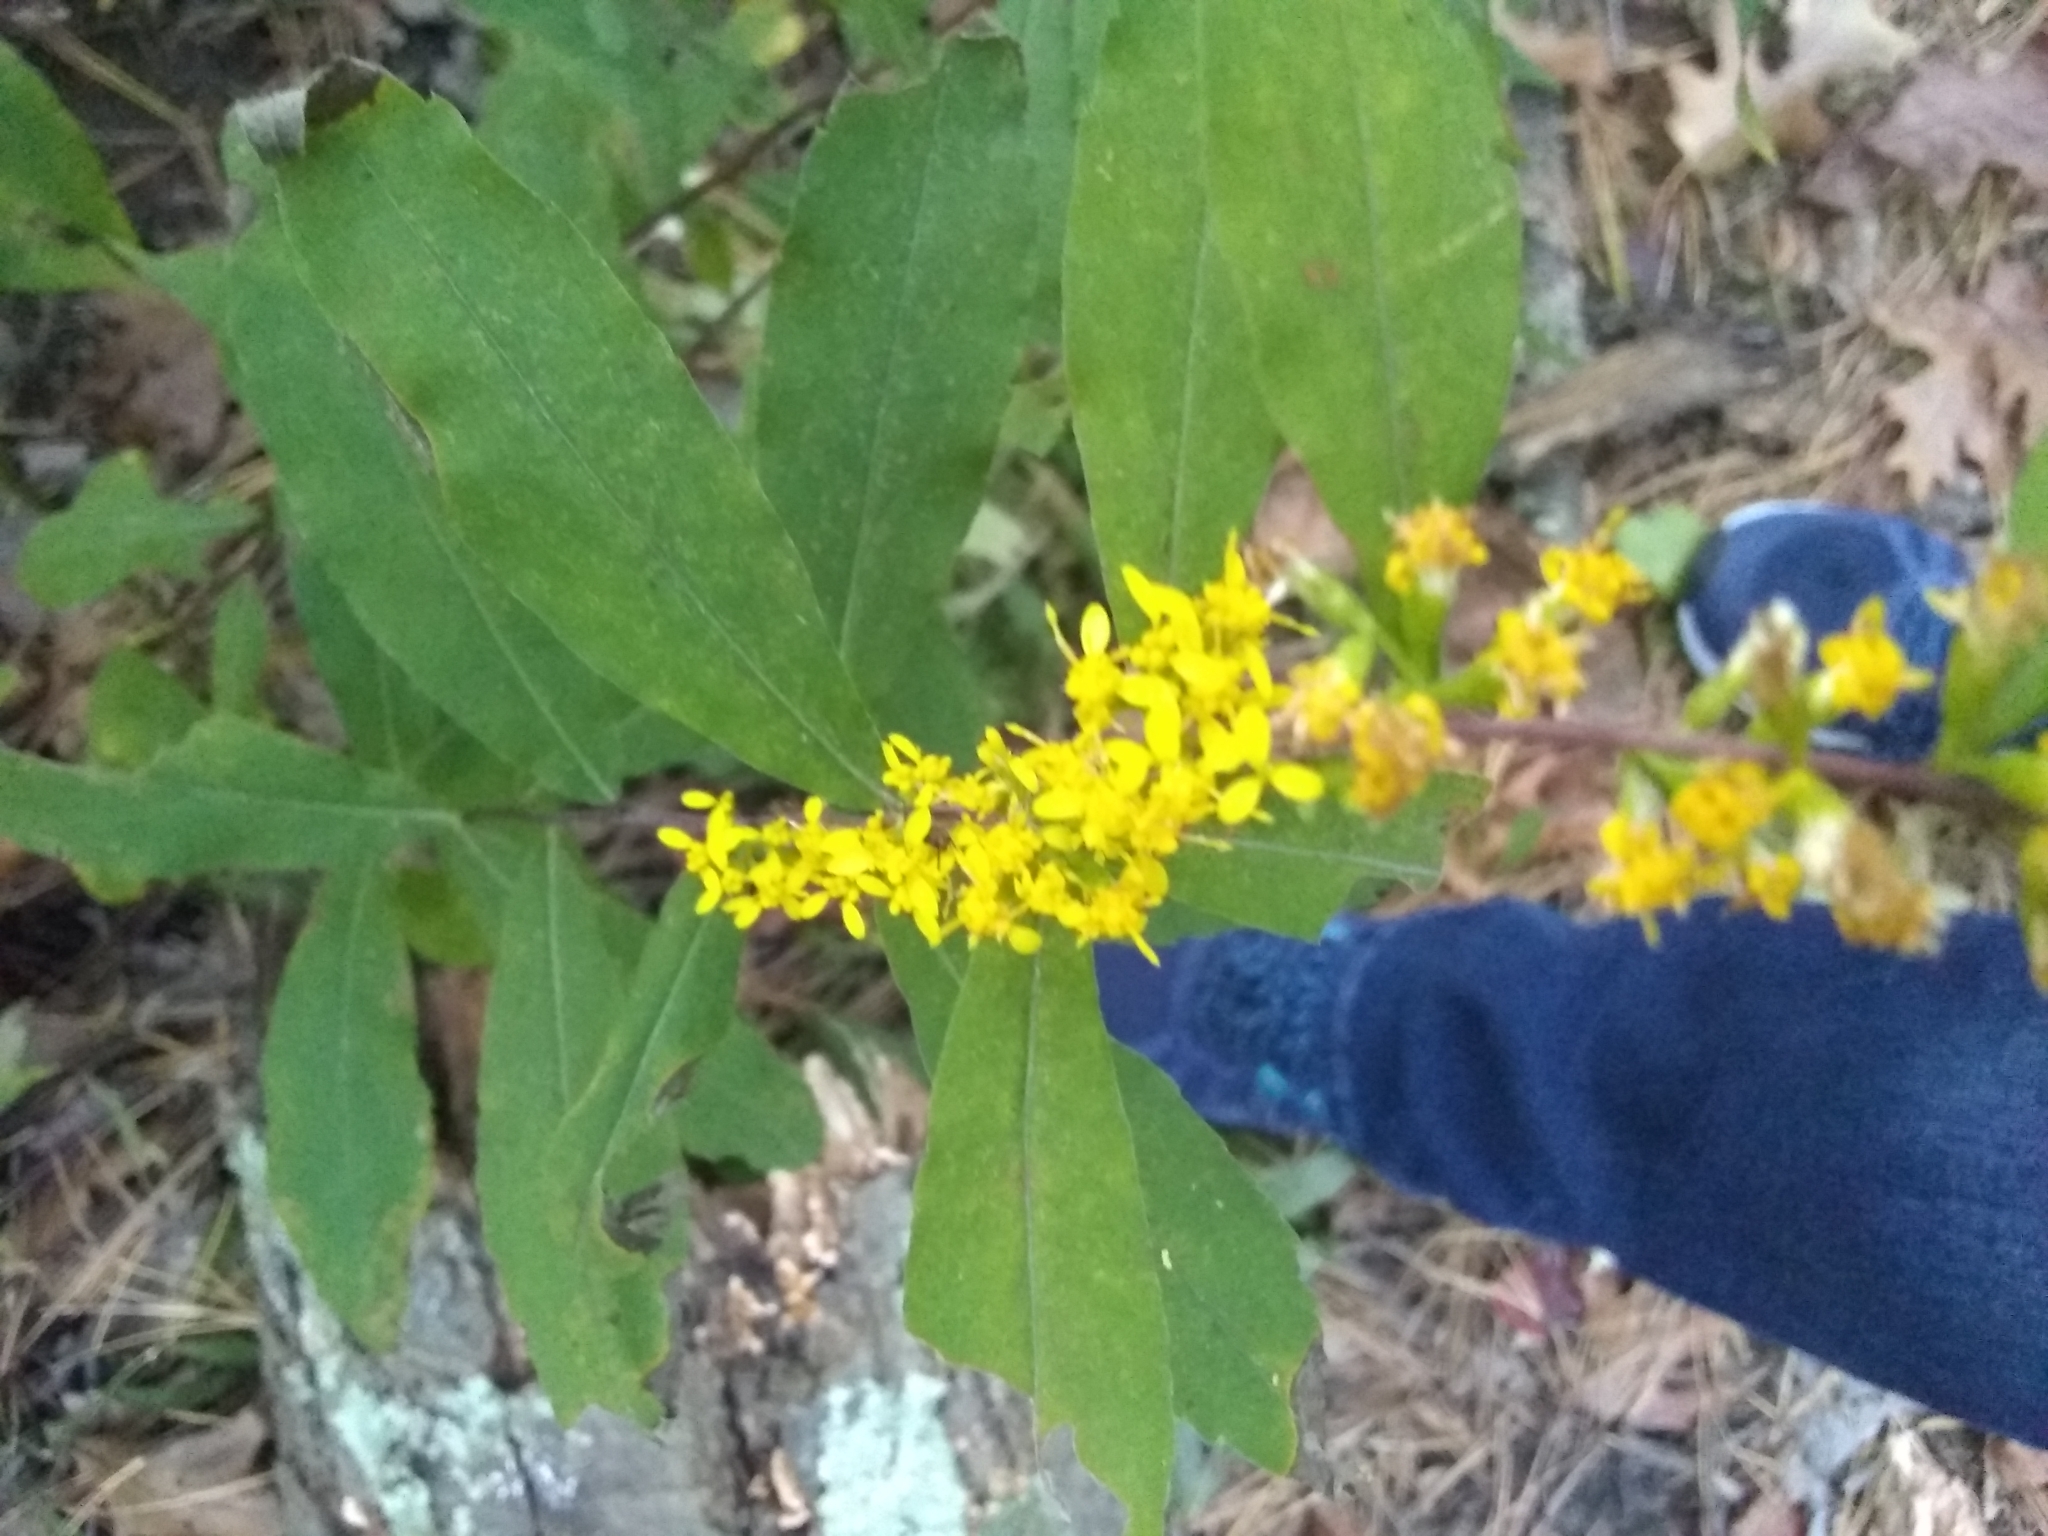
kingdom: Plantae
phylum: Tracheophyta
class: Magnoliopsida
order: Asterales
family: Asteraceae
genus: Solidago
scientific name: Solidago caesia
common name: Woodland goldenrod
